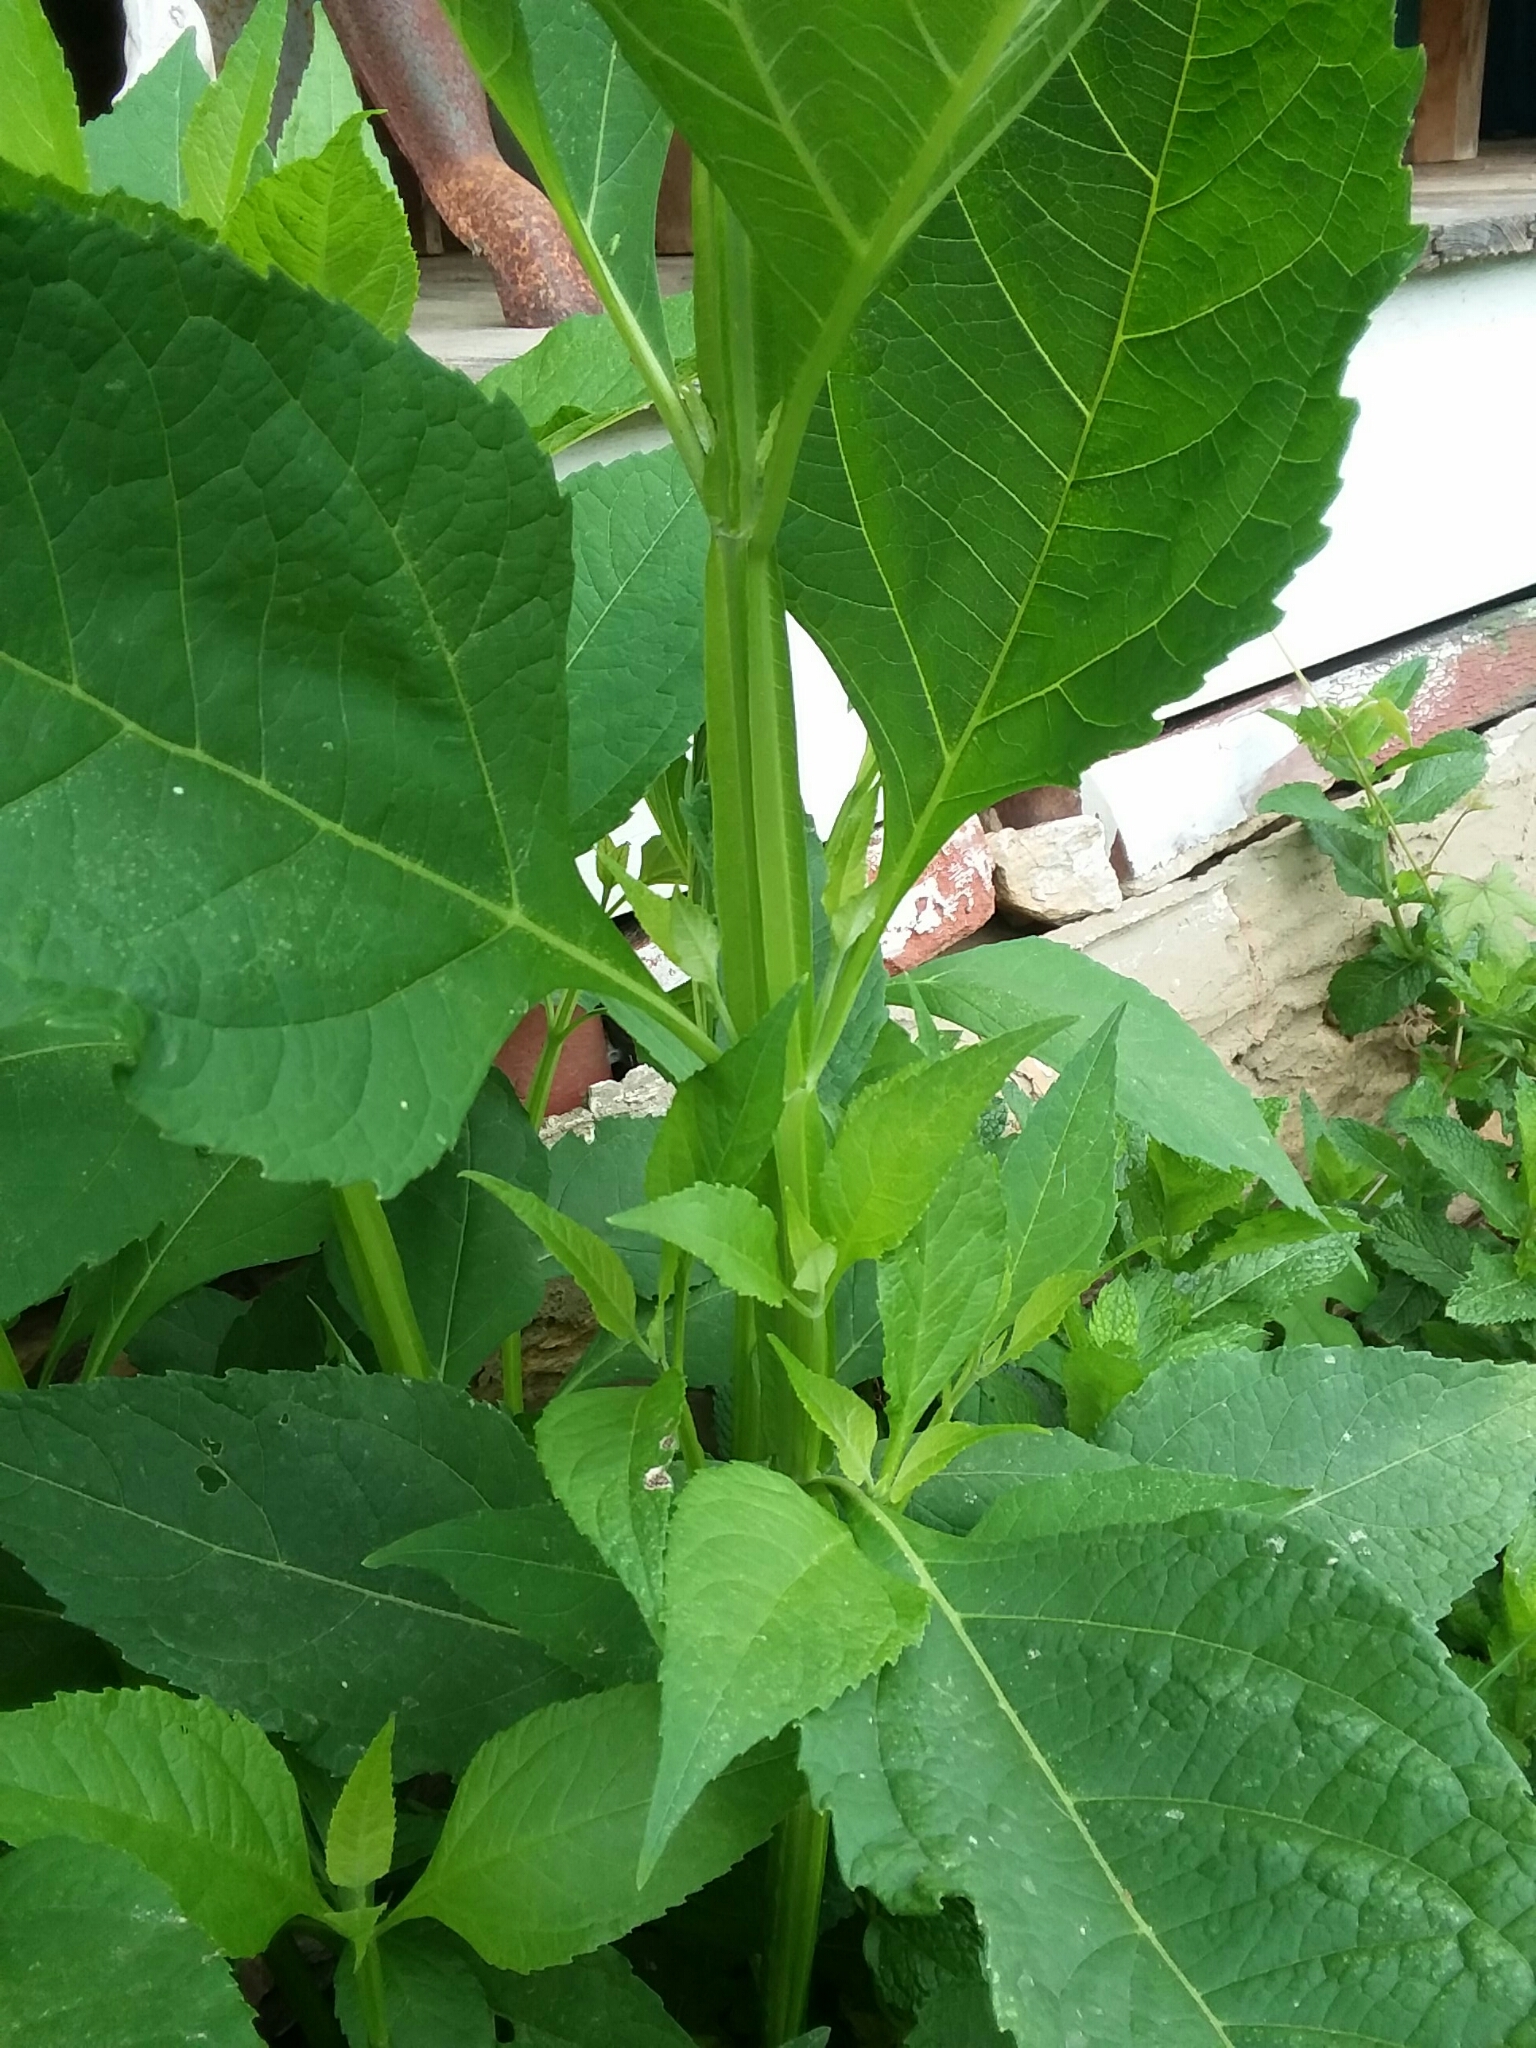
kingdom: Plantae
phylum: Tracheophyta
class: Magnoliopsida
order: Asterales
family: Asteraceae
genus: Verbesina
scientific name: Verbesina occidentalis
